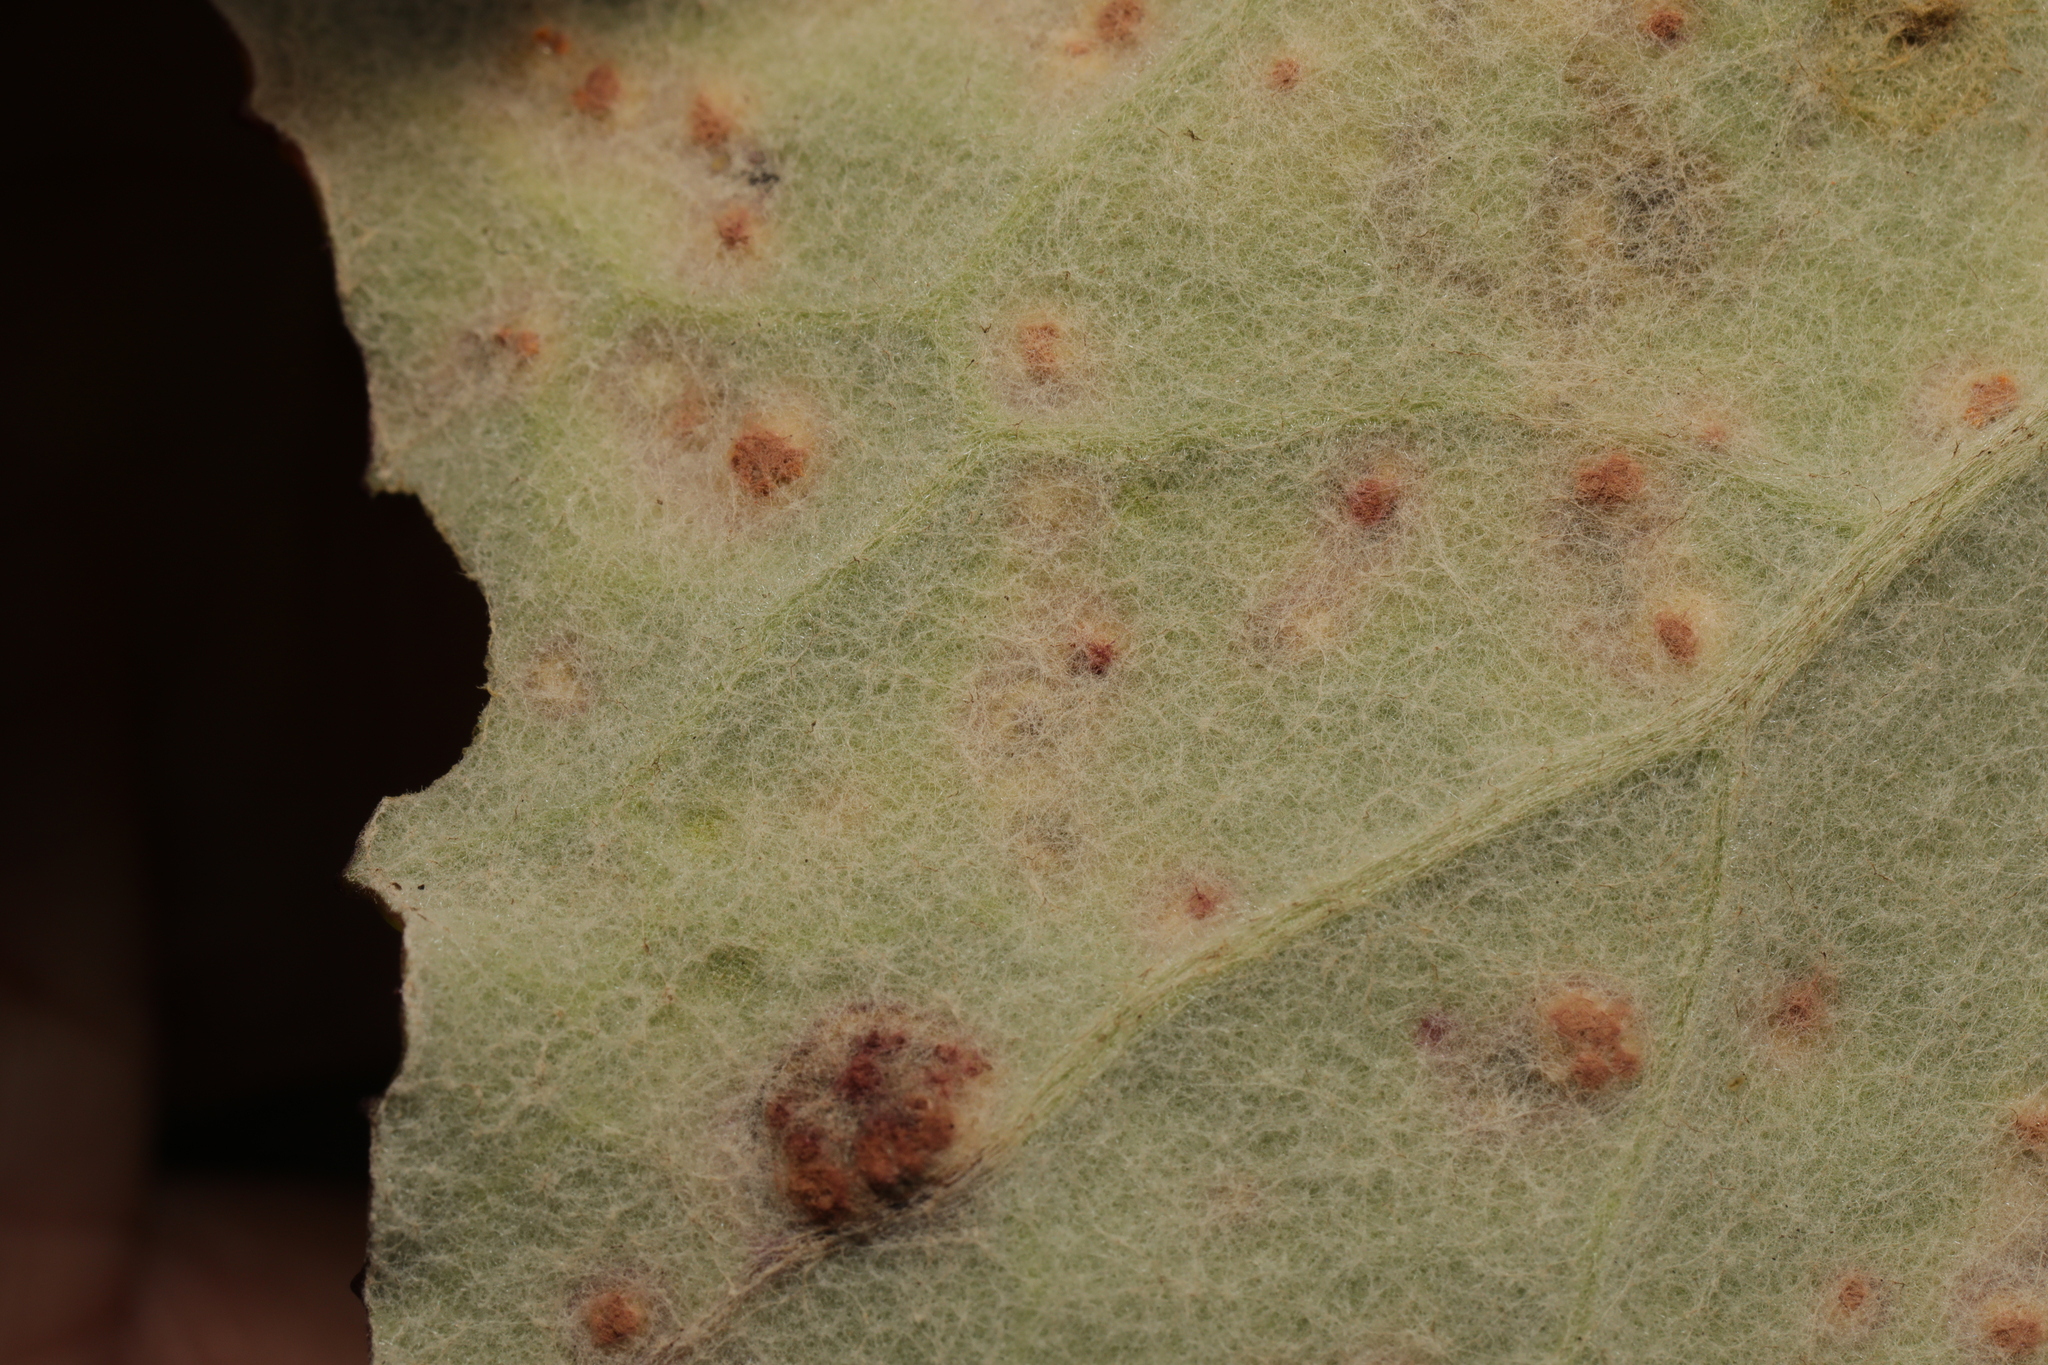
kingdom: Fungi
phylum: Basidiomycota
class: Pucciniomycetes
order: Pucciniales
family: Coleosporiaceae
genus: Coleosporium
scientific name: Coleosporium tussilaginis
